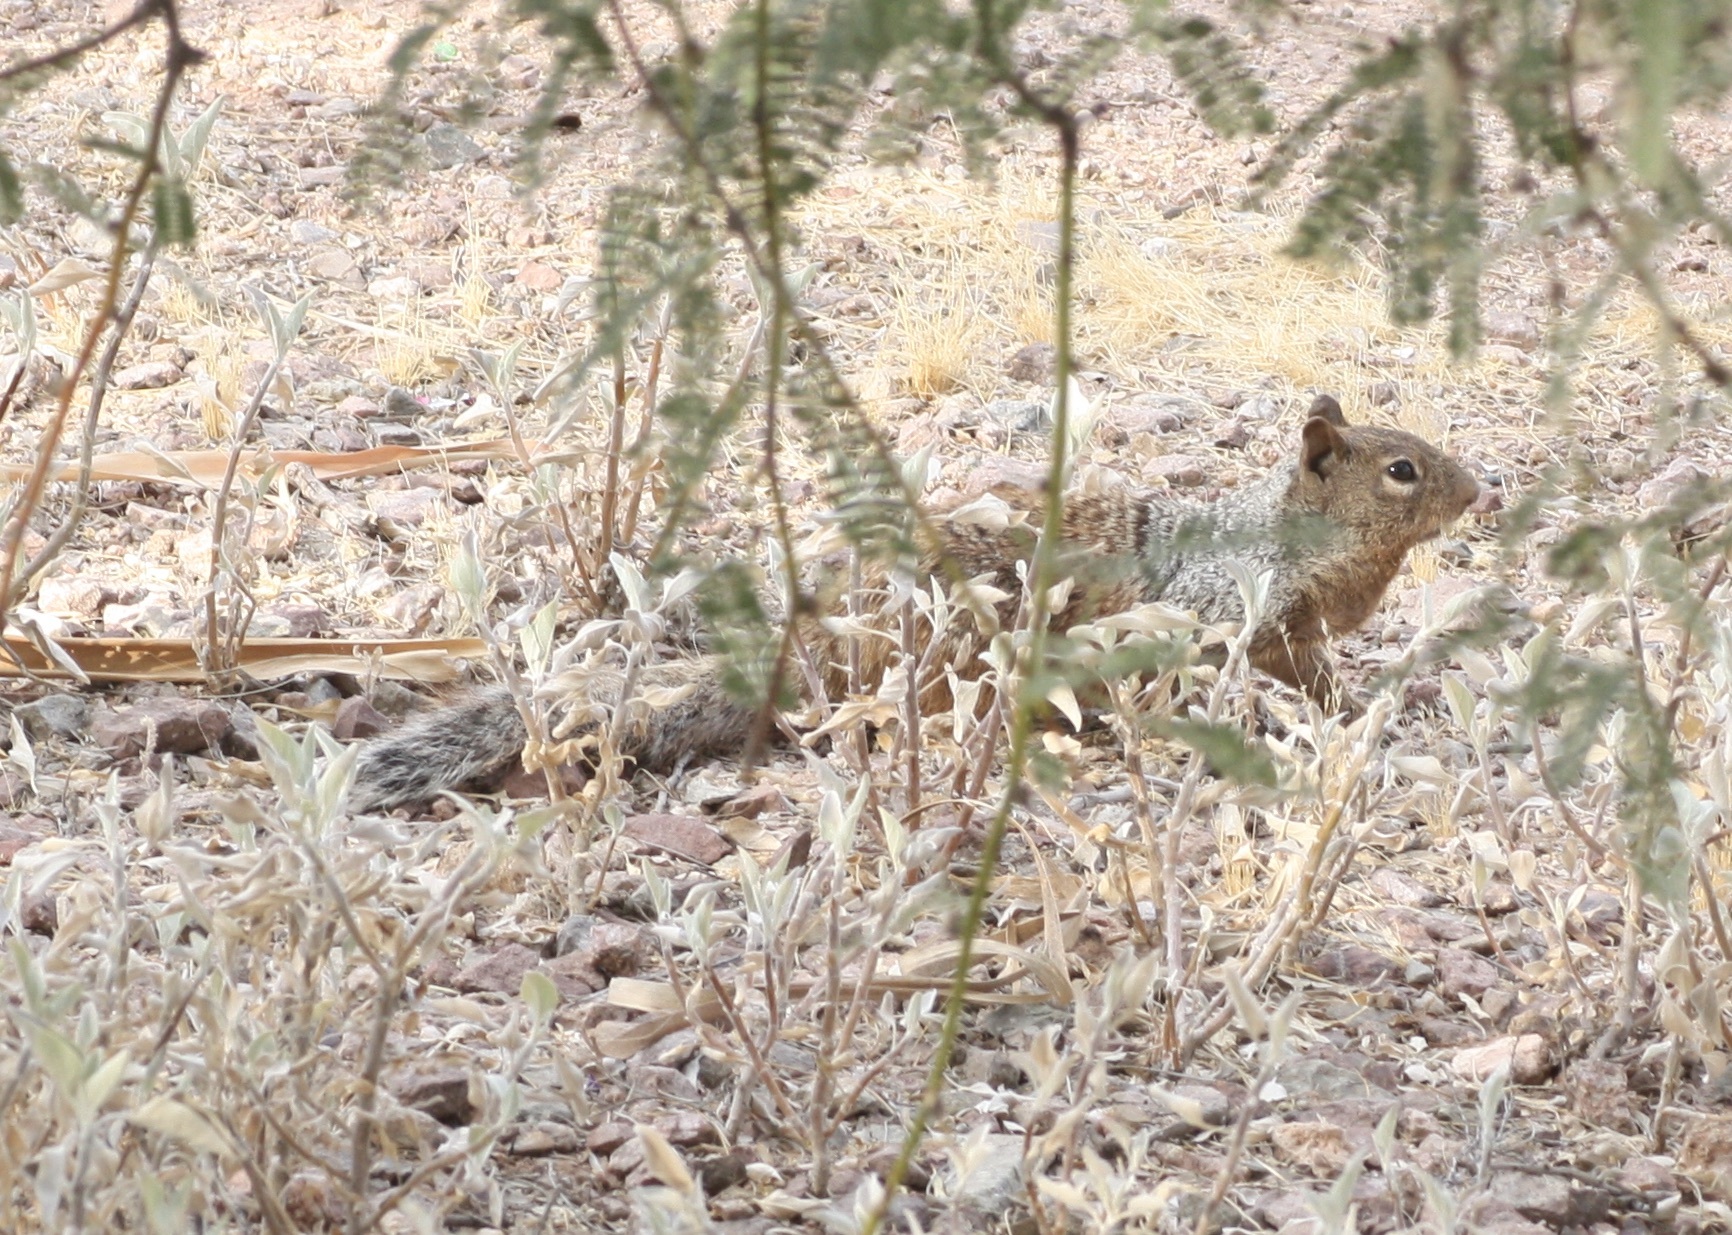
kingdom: Animalia
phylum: Chordata
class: Mammalia
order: Rodentia
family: Sciuridae
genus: Otospermophilus
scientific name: Otospermophilus variegatus
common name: Rock squirrel
